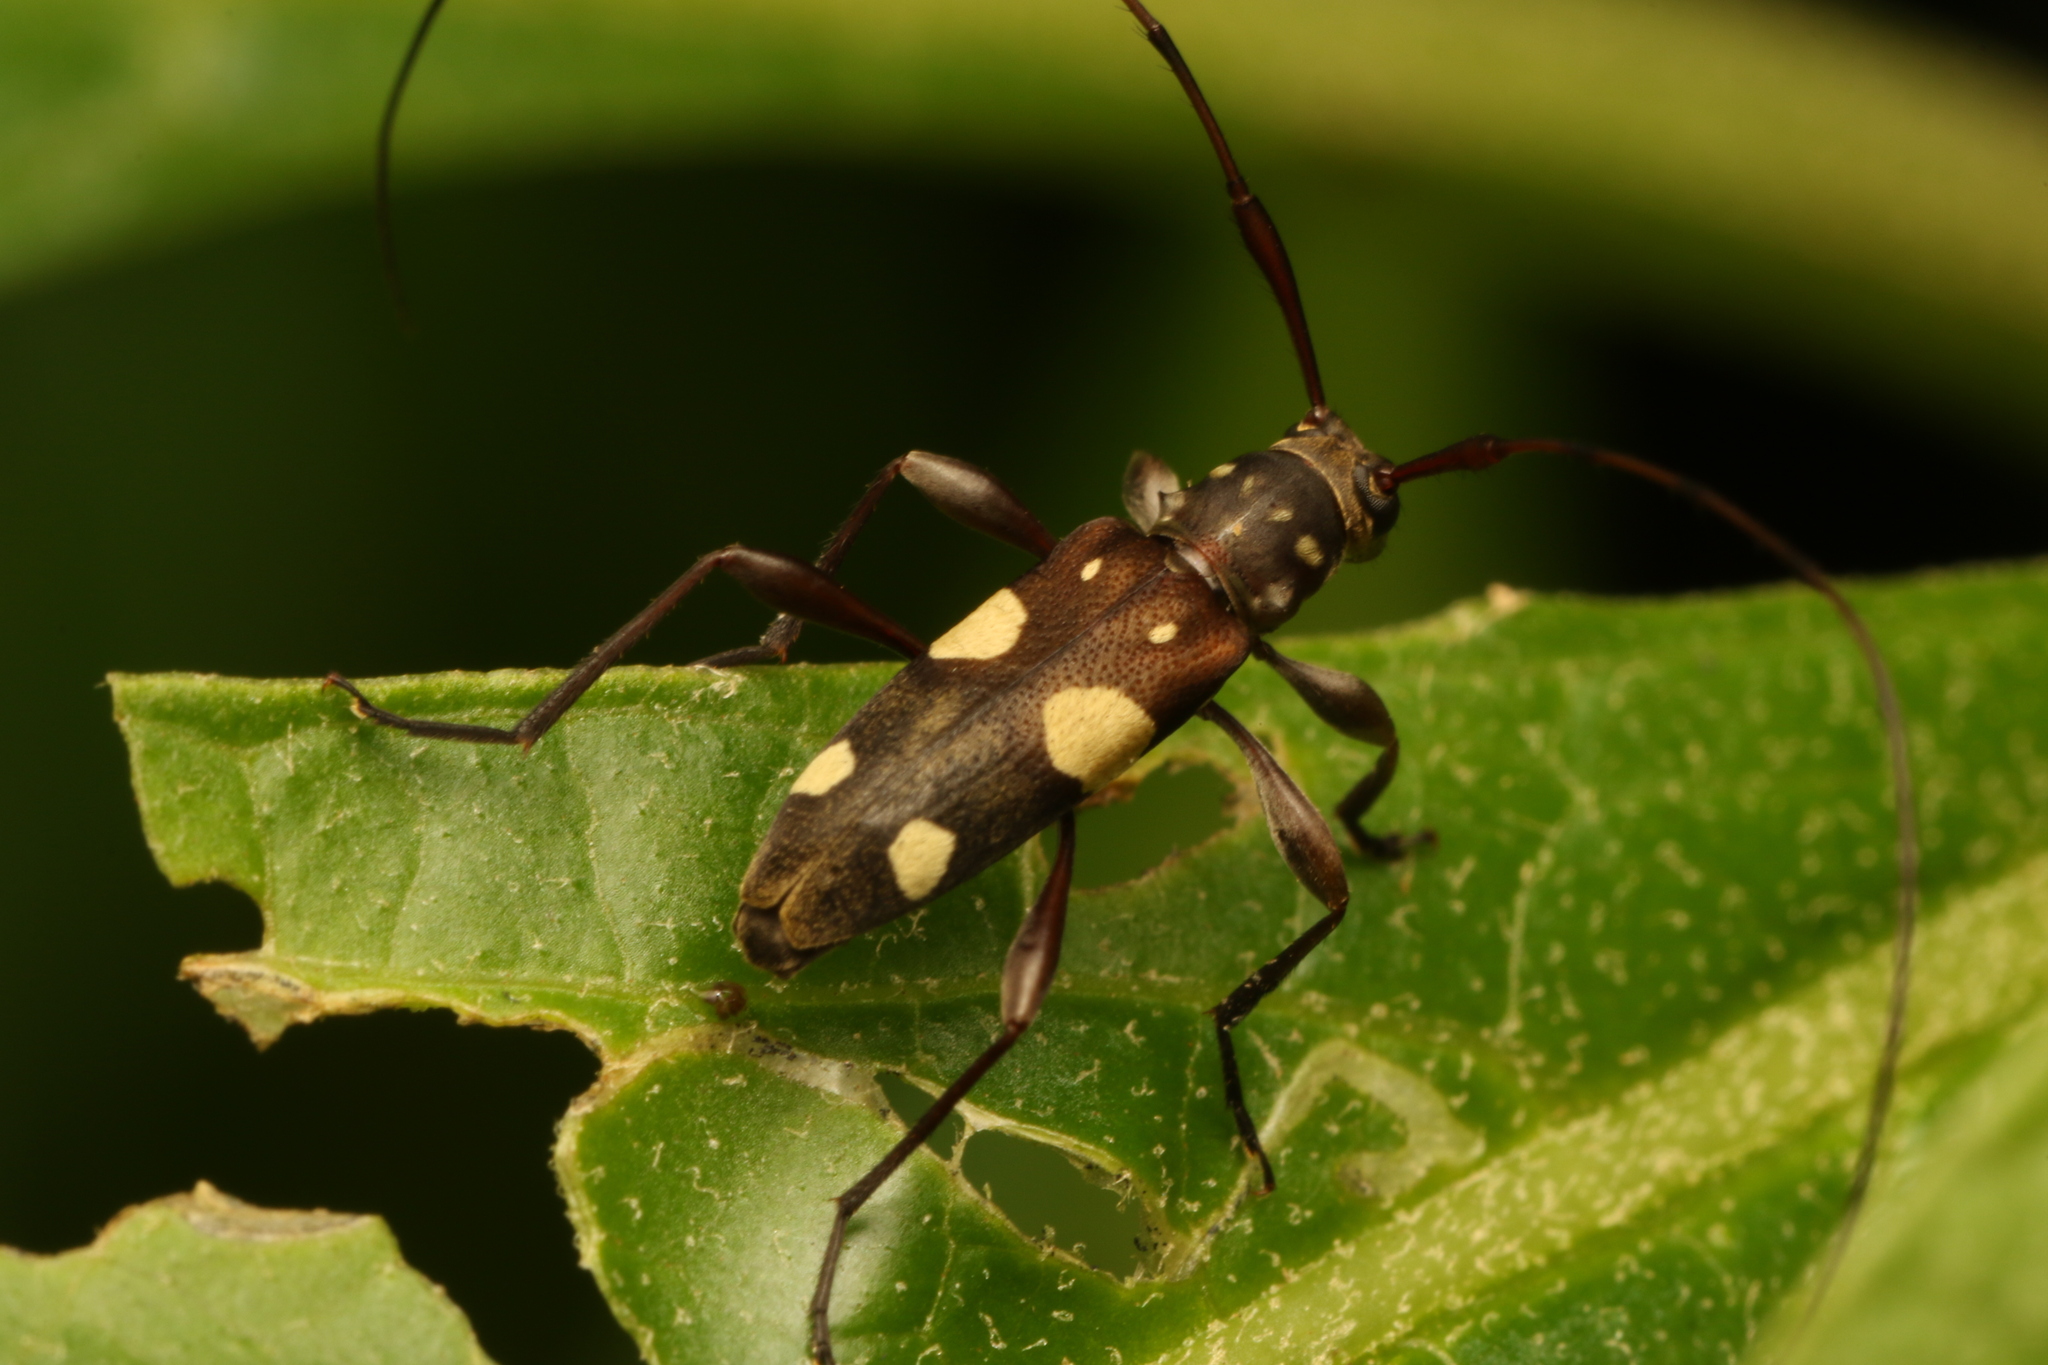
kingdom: Animalia
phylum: Arthropoda
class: Insecta
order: Coleoptera
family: Cerambycidae
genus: Probatiomimus
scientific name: Probatiomimus schwarzeri
